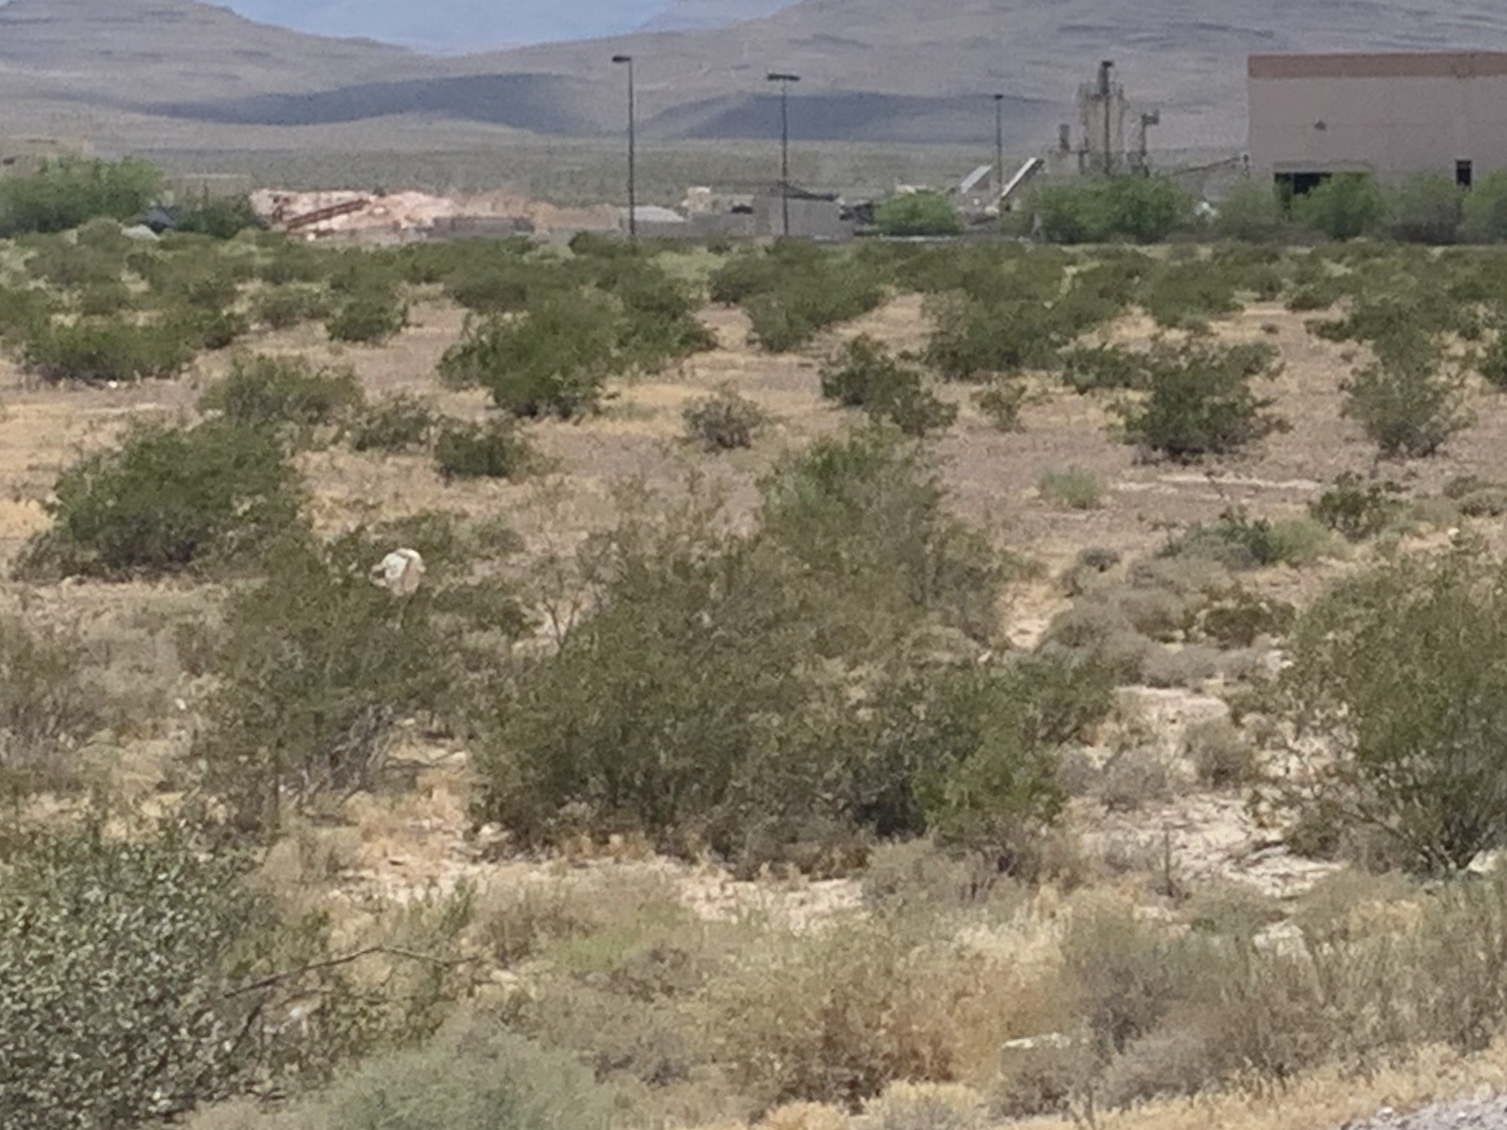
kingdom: Plantae
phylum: Tracheophyta
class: Magnoliopsida
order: Zygophyllales
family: Zygophyllaceae
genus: Larrea
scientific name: Larrea tridentata
